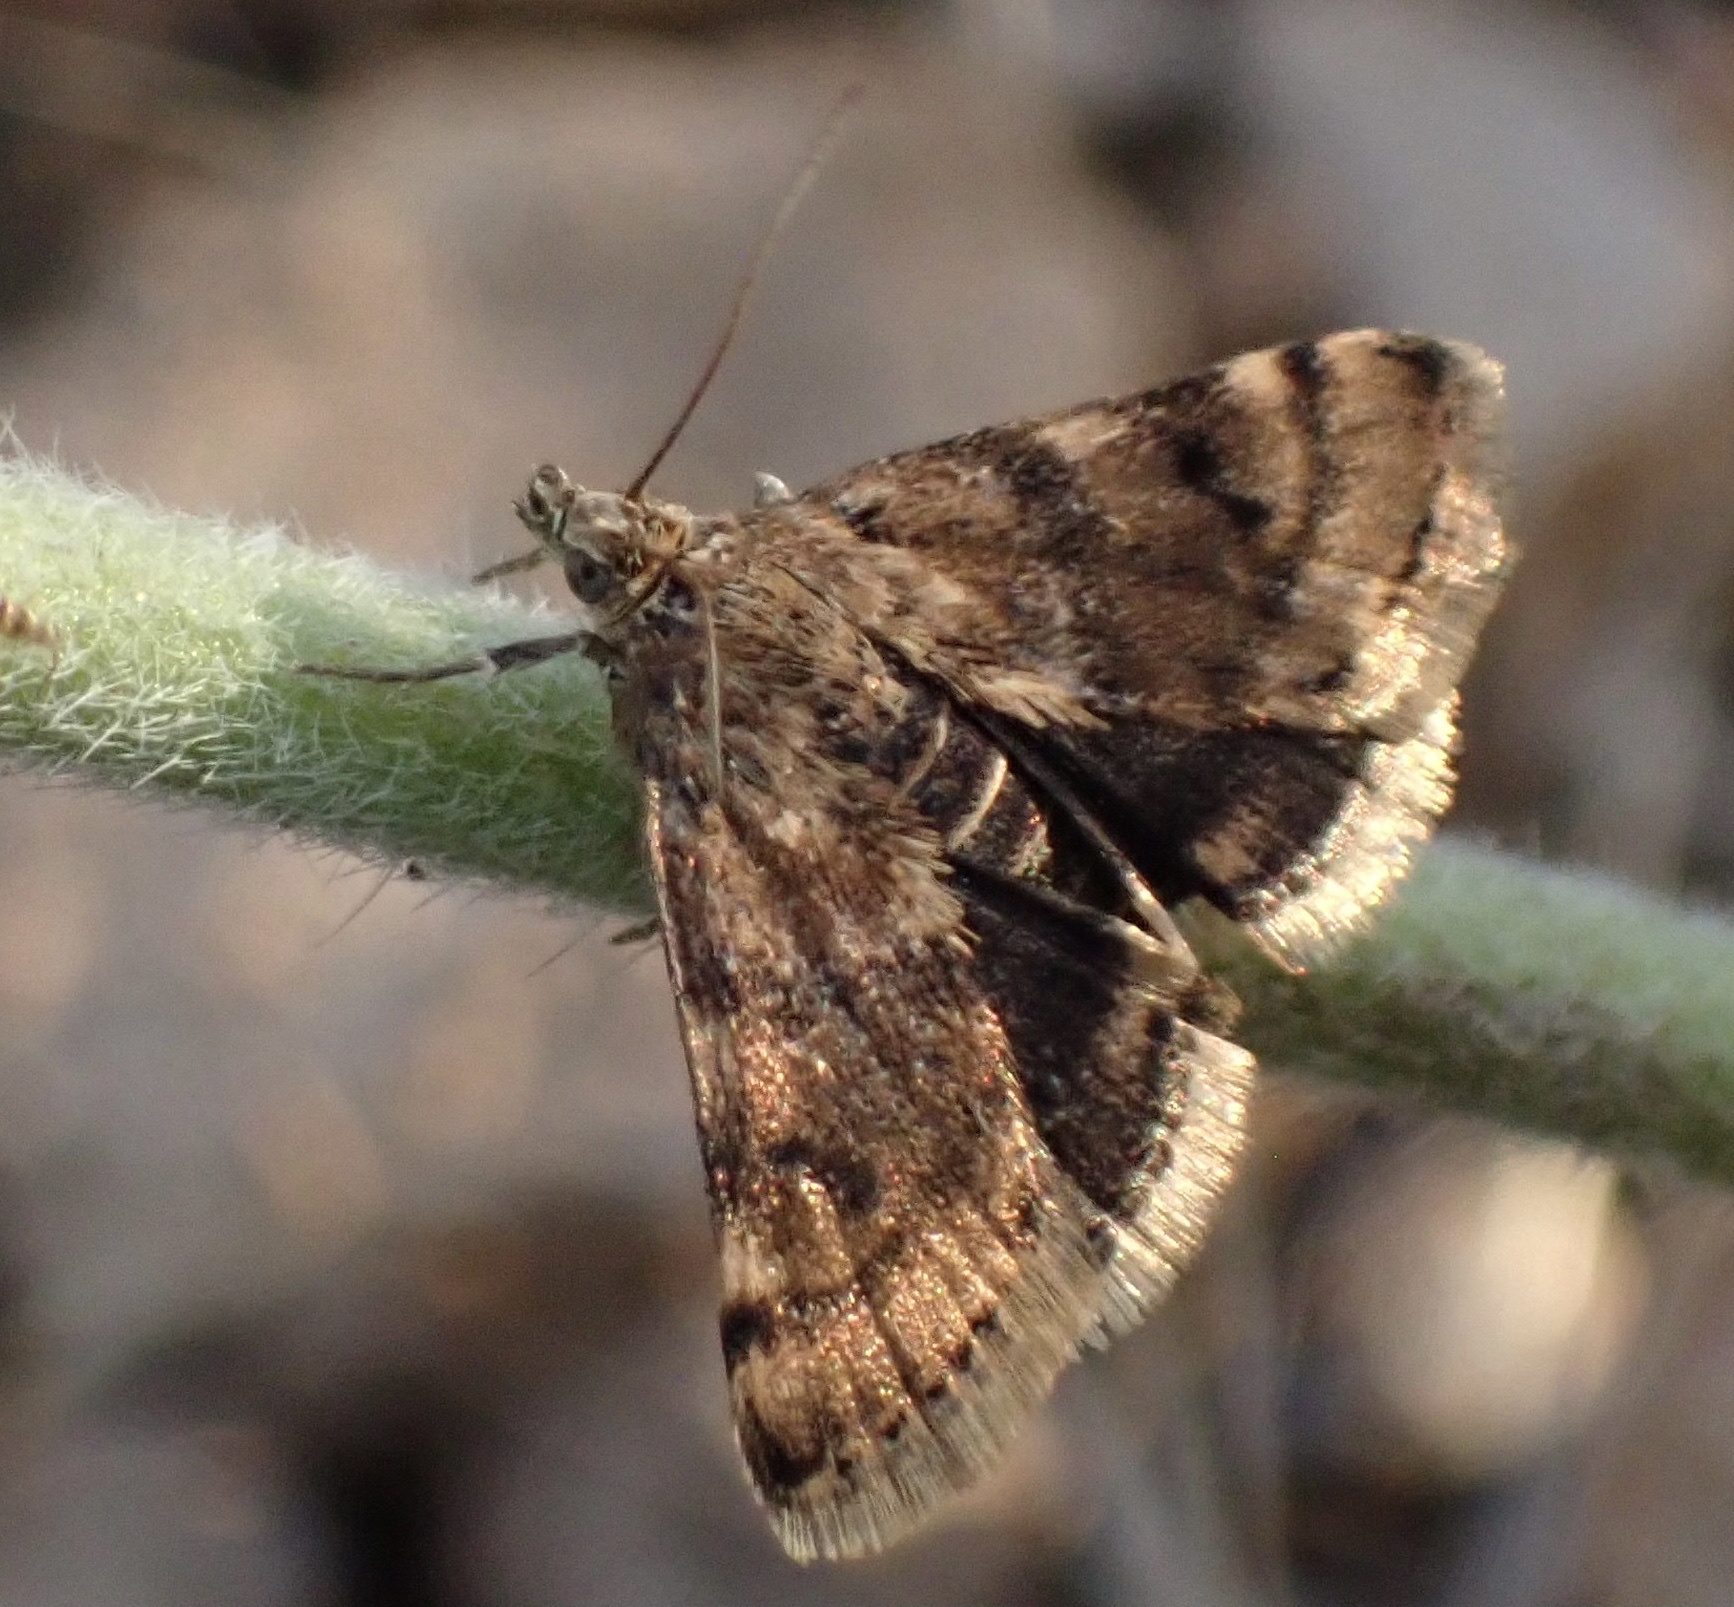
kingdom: Animalia
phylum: Arthropoda
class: Insecta
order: Lepidoptera
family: Crambidae
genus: Noctuelia
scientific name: Noctuelia Aporodes floralis
